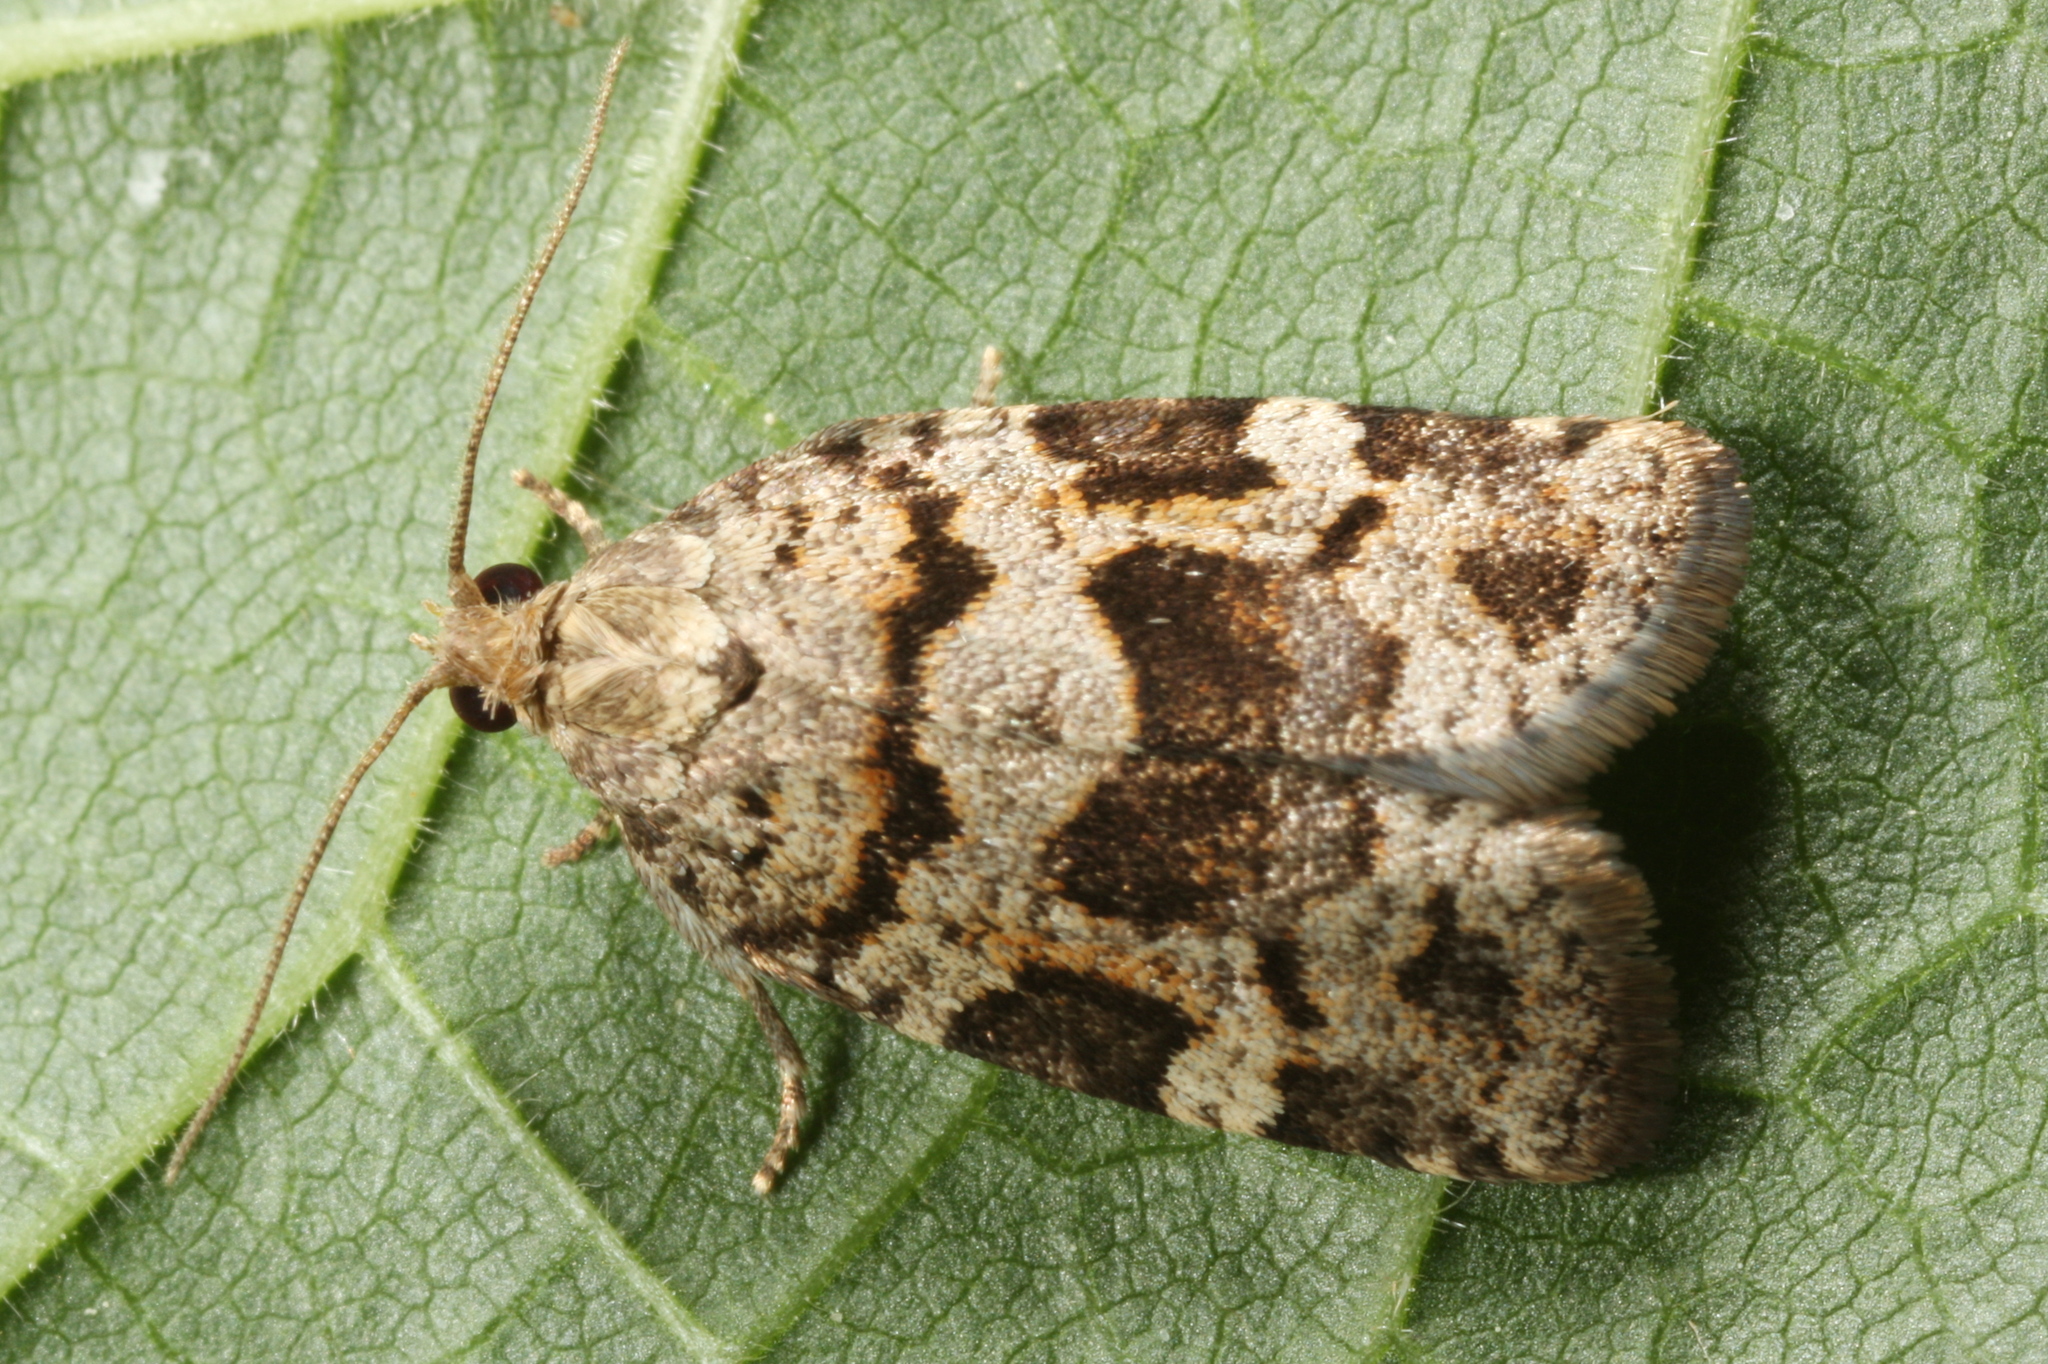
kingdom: Animalia
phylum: Arthropoda
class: Insecta
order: Lepidoptera
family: Tortricidae
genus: Dichelia
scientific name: Dichelia histrionana
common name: Tortricid moth
